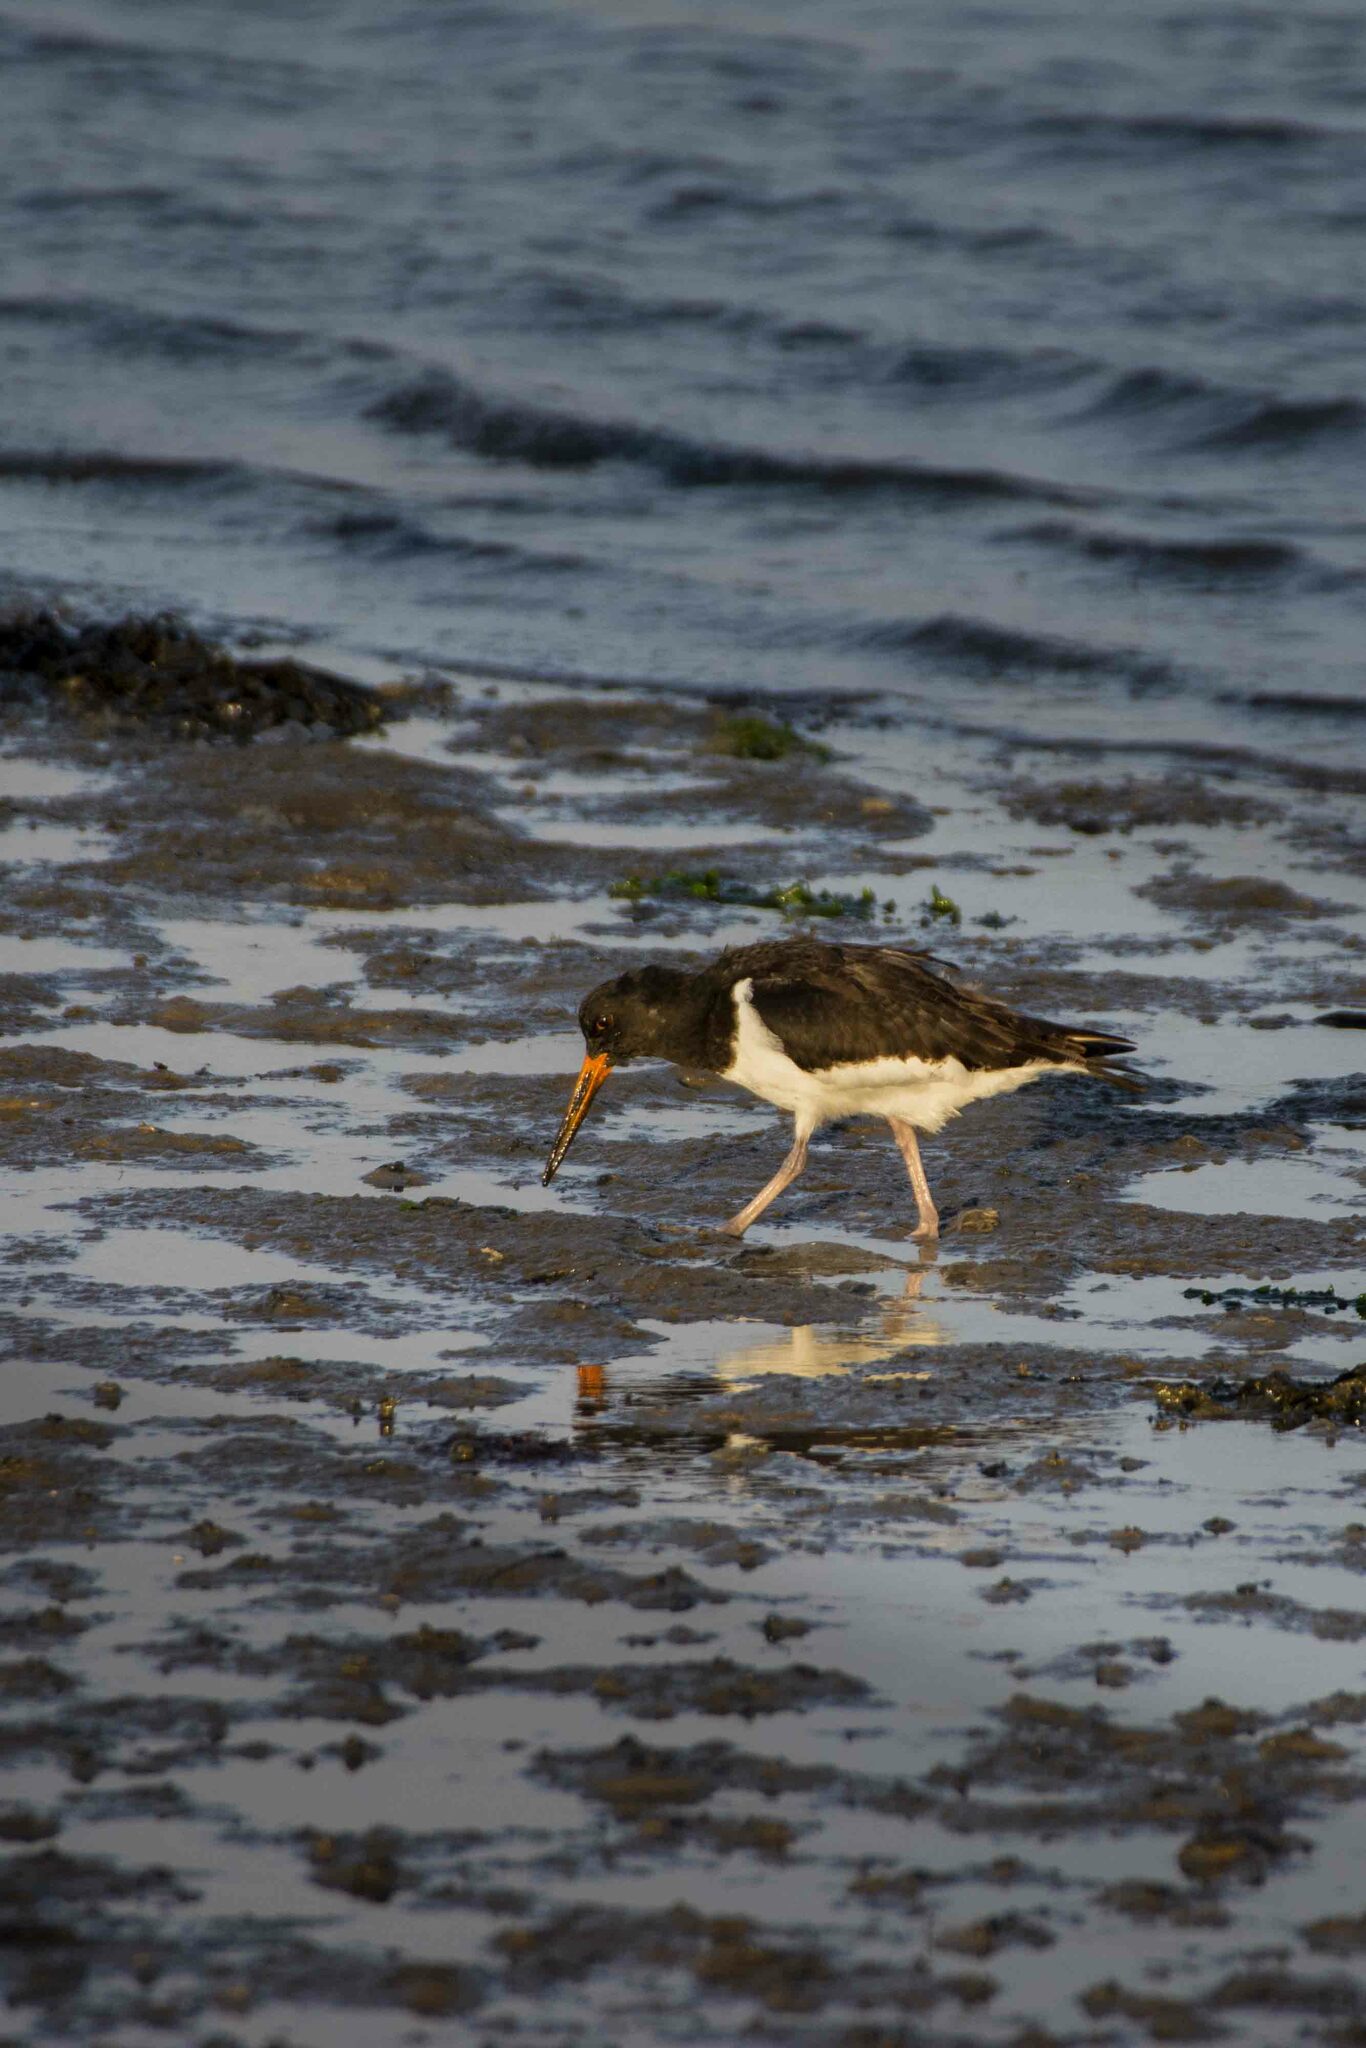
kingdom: Animalia
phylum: Chordata
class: Aves
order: Charadriiformes
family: Haematopodidae
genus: Haematopus
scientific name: Haematopus ostralegus
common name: Eurasian oystercatcher
